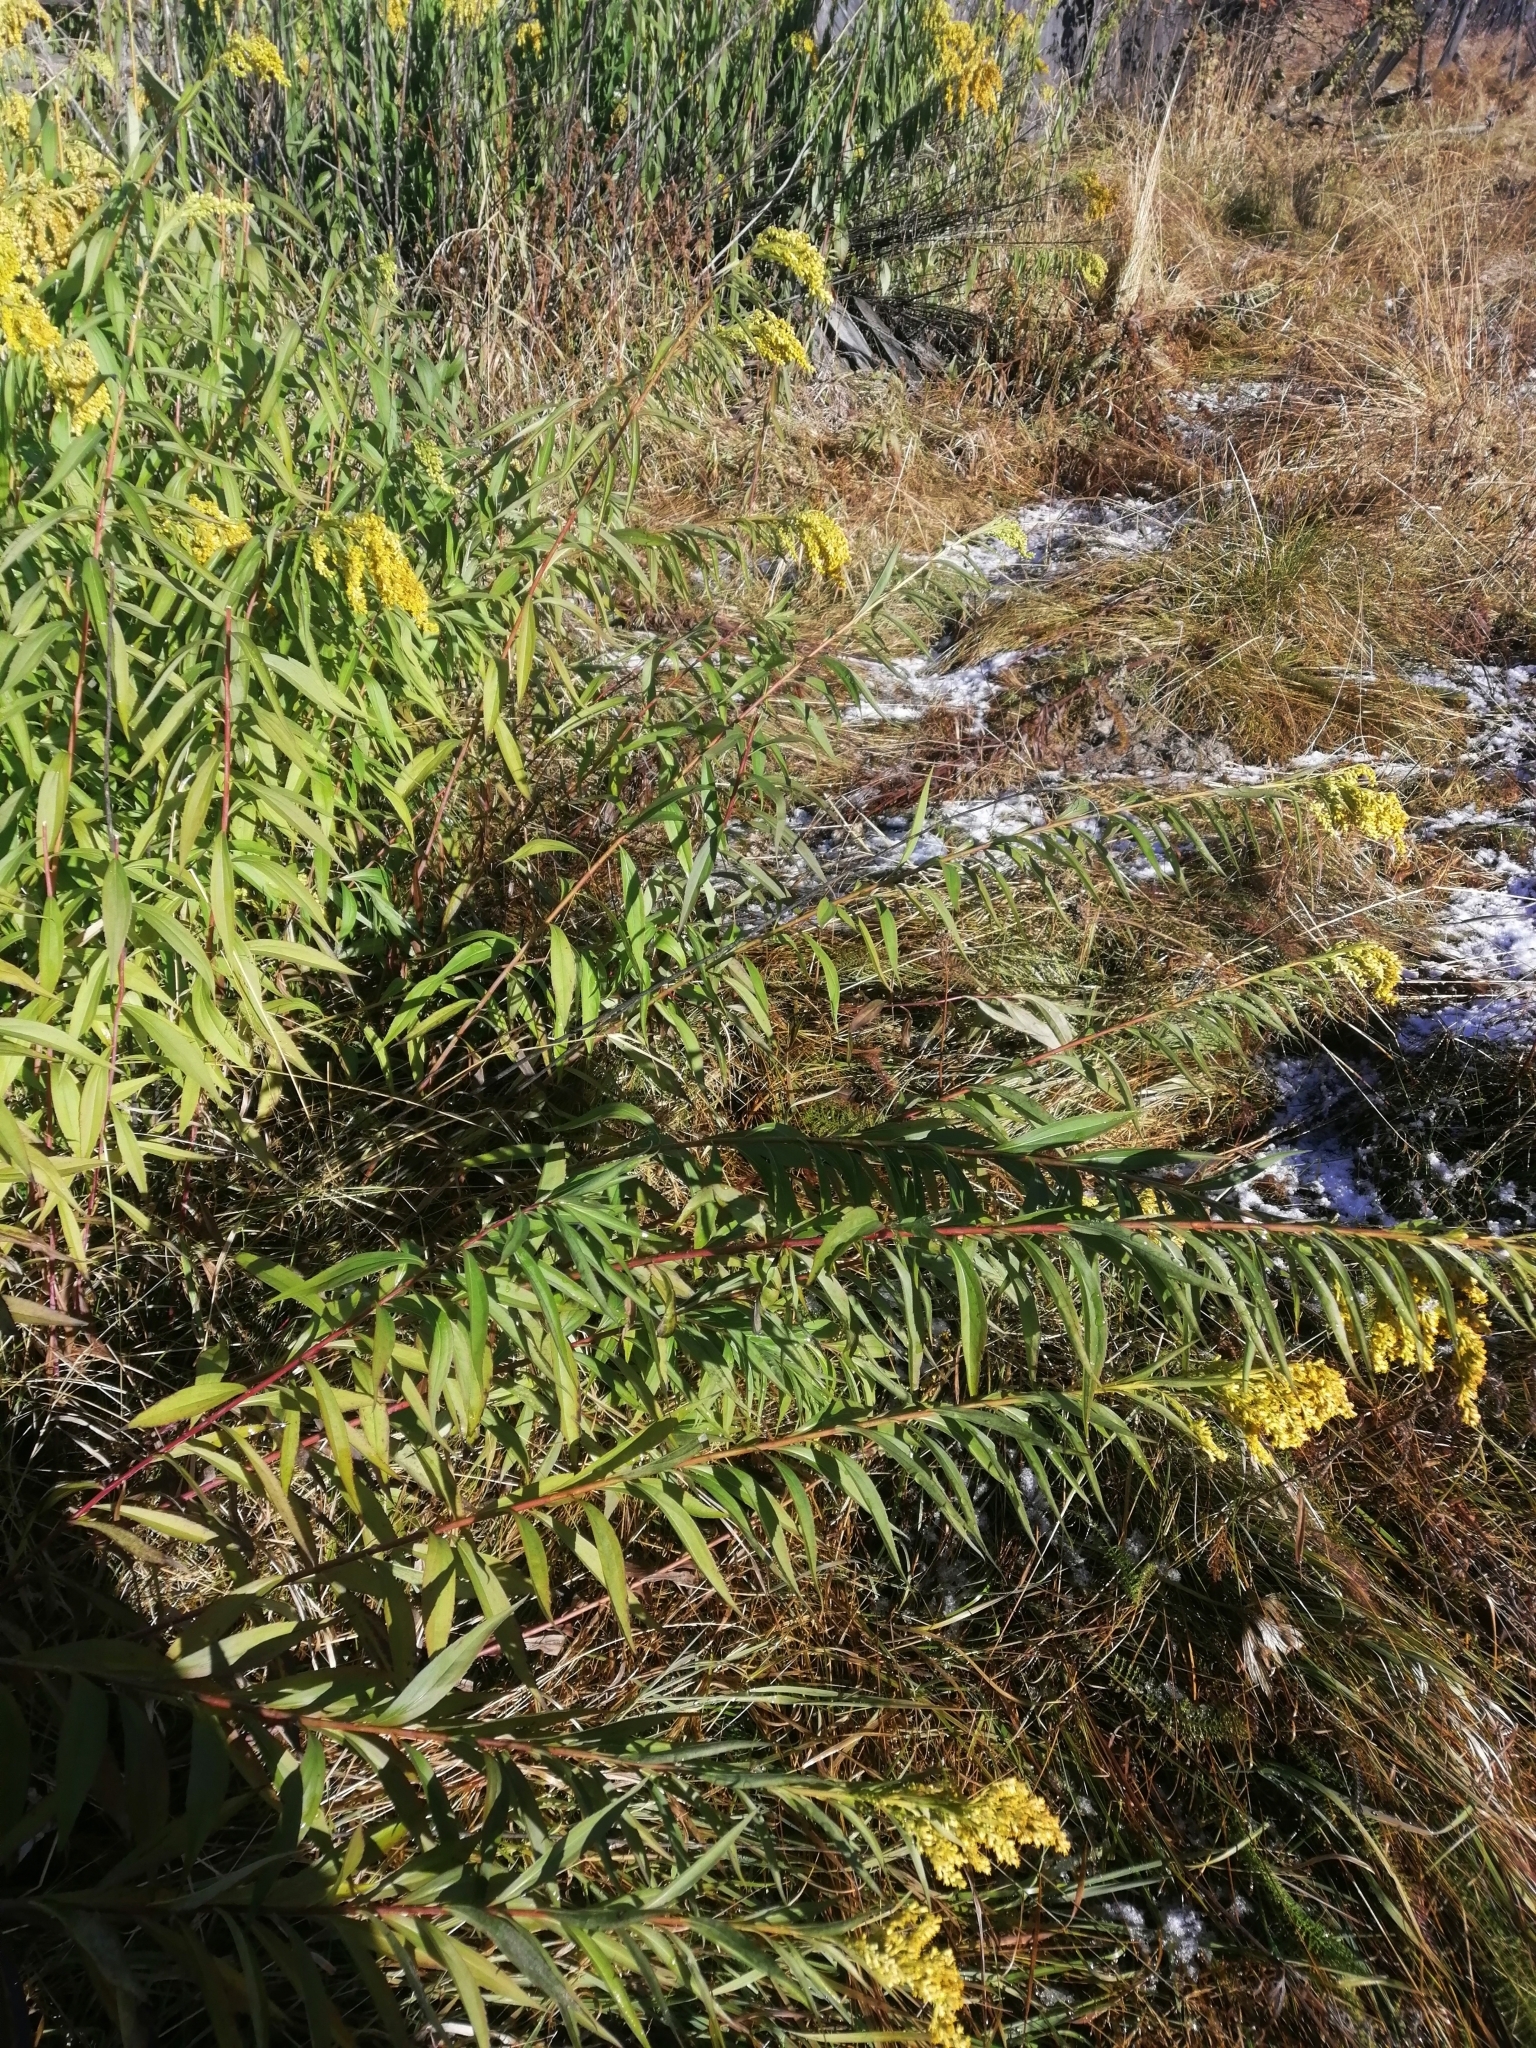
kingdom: Plantae
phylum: Tracheophyta
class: Magnoliopsida
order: Asterales
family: Asteraceae
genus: Solidago
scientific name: Solidago canadensis
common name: Canada goldenrod
